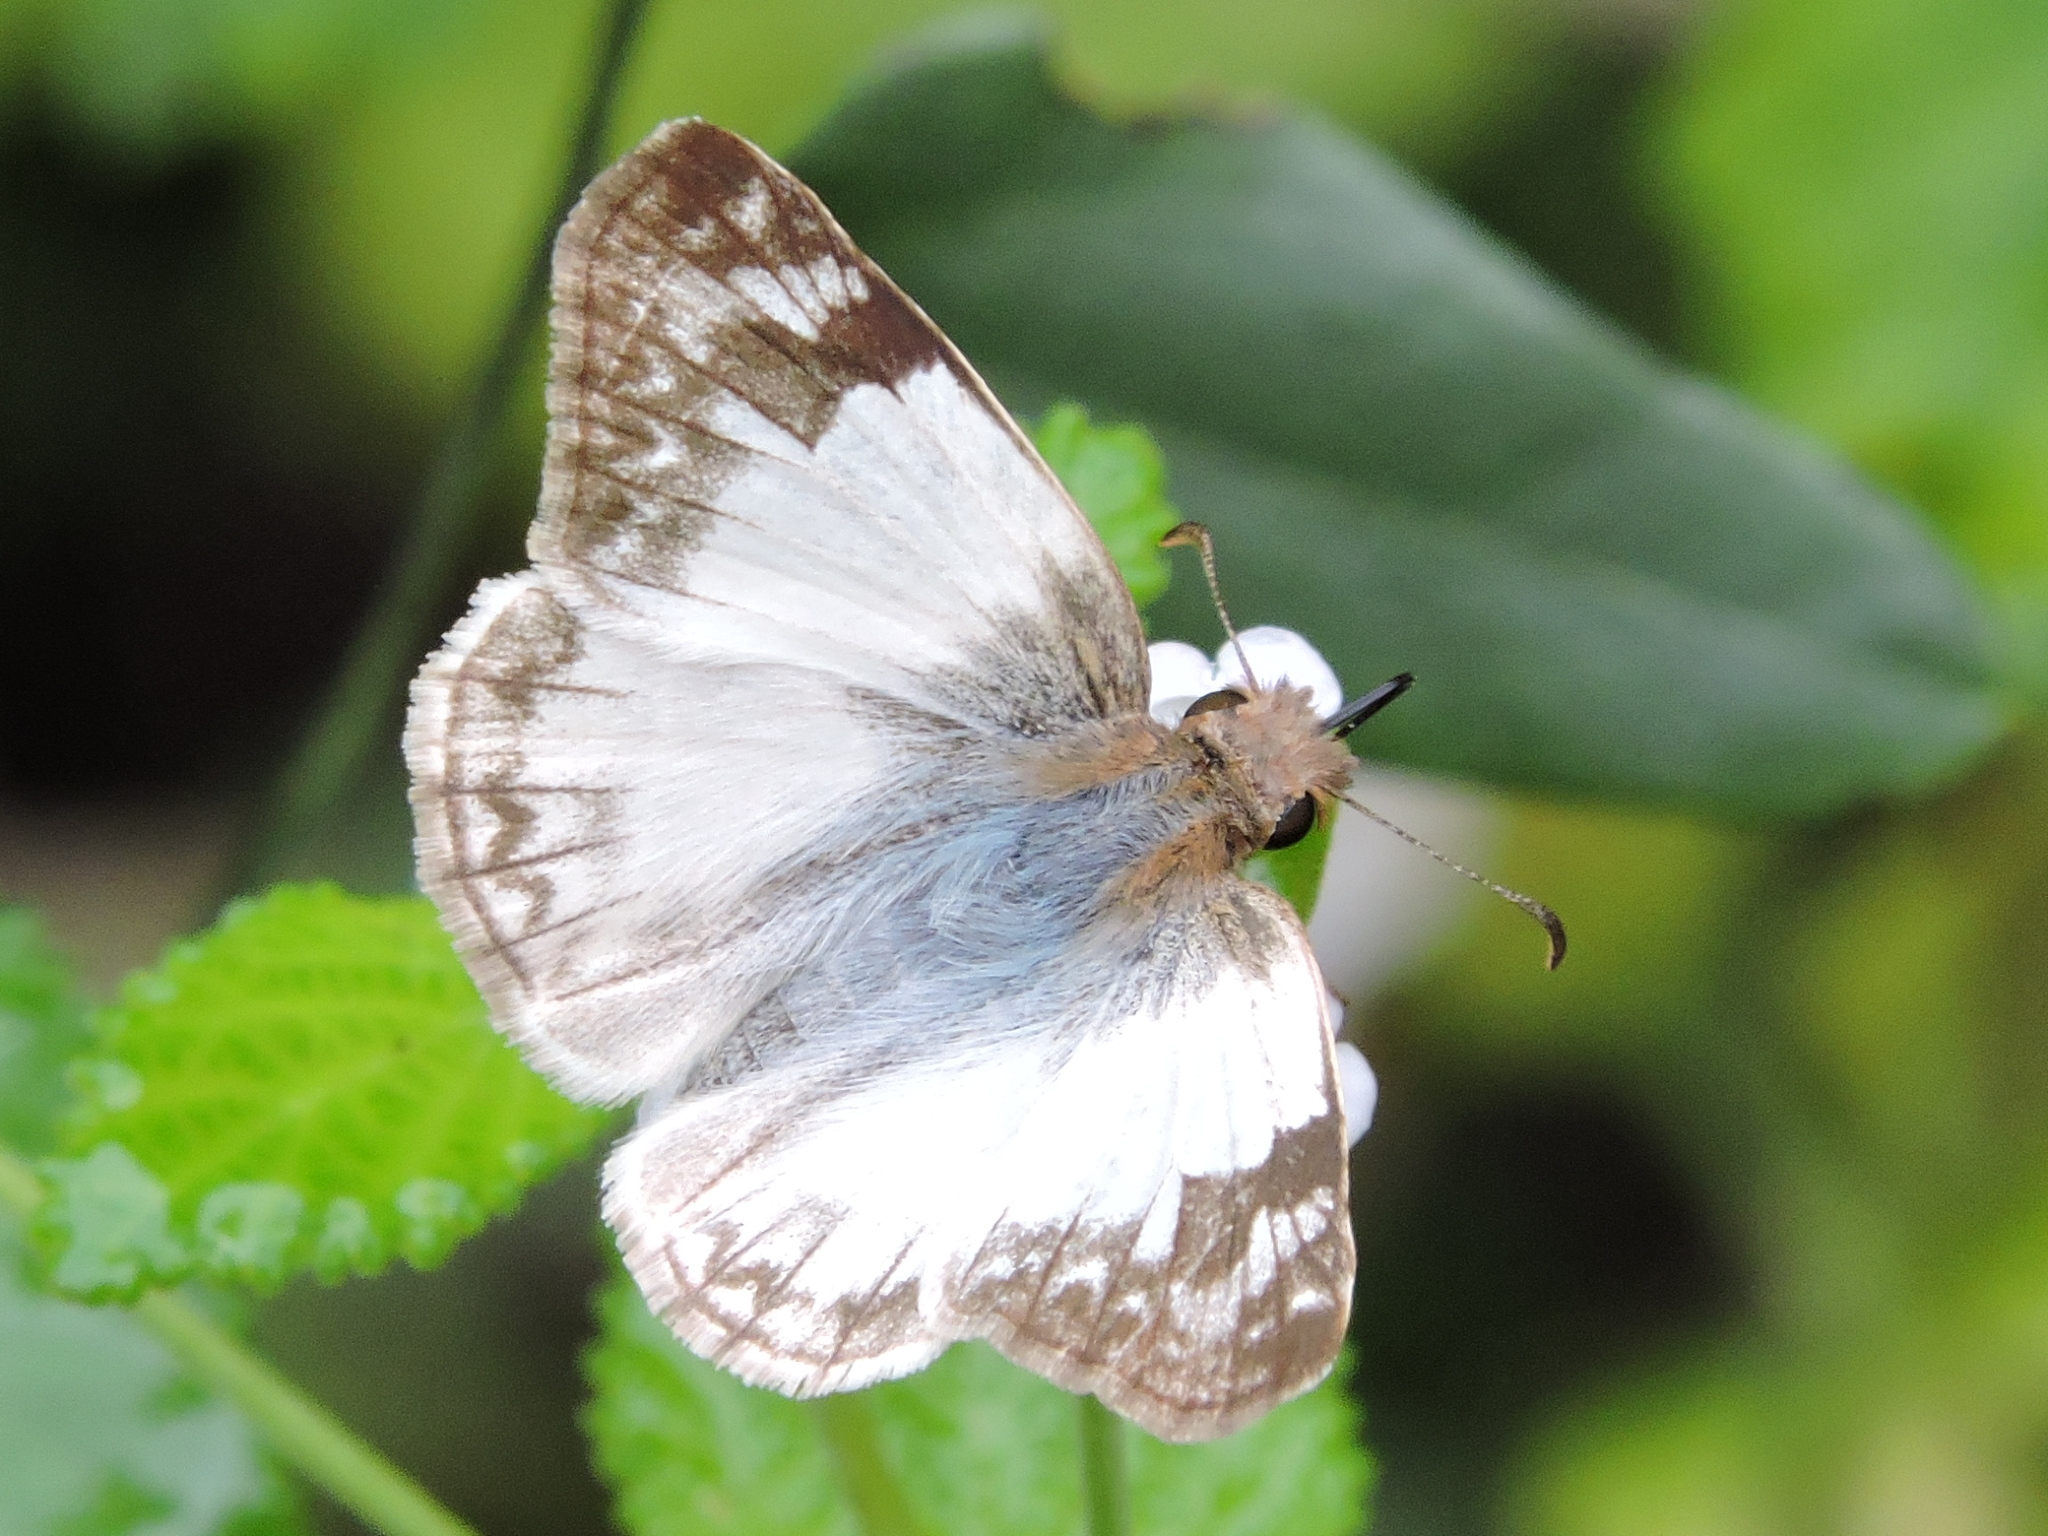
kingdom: Animalia
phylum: Arthropoda
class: Insecta
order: Lepidoptera
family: Hesperiidae
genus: Heliopetes
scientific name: Heliopetes laviana
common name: Laviana white-skipper
